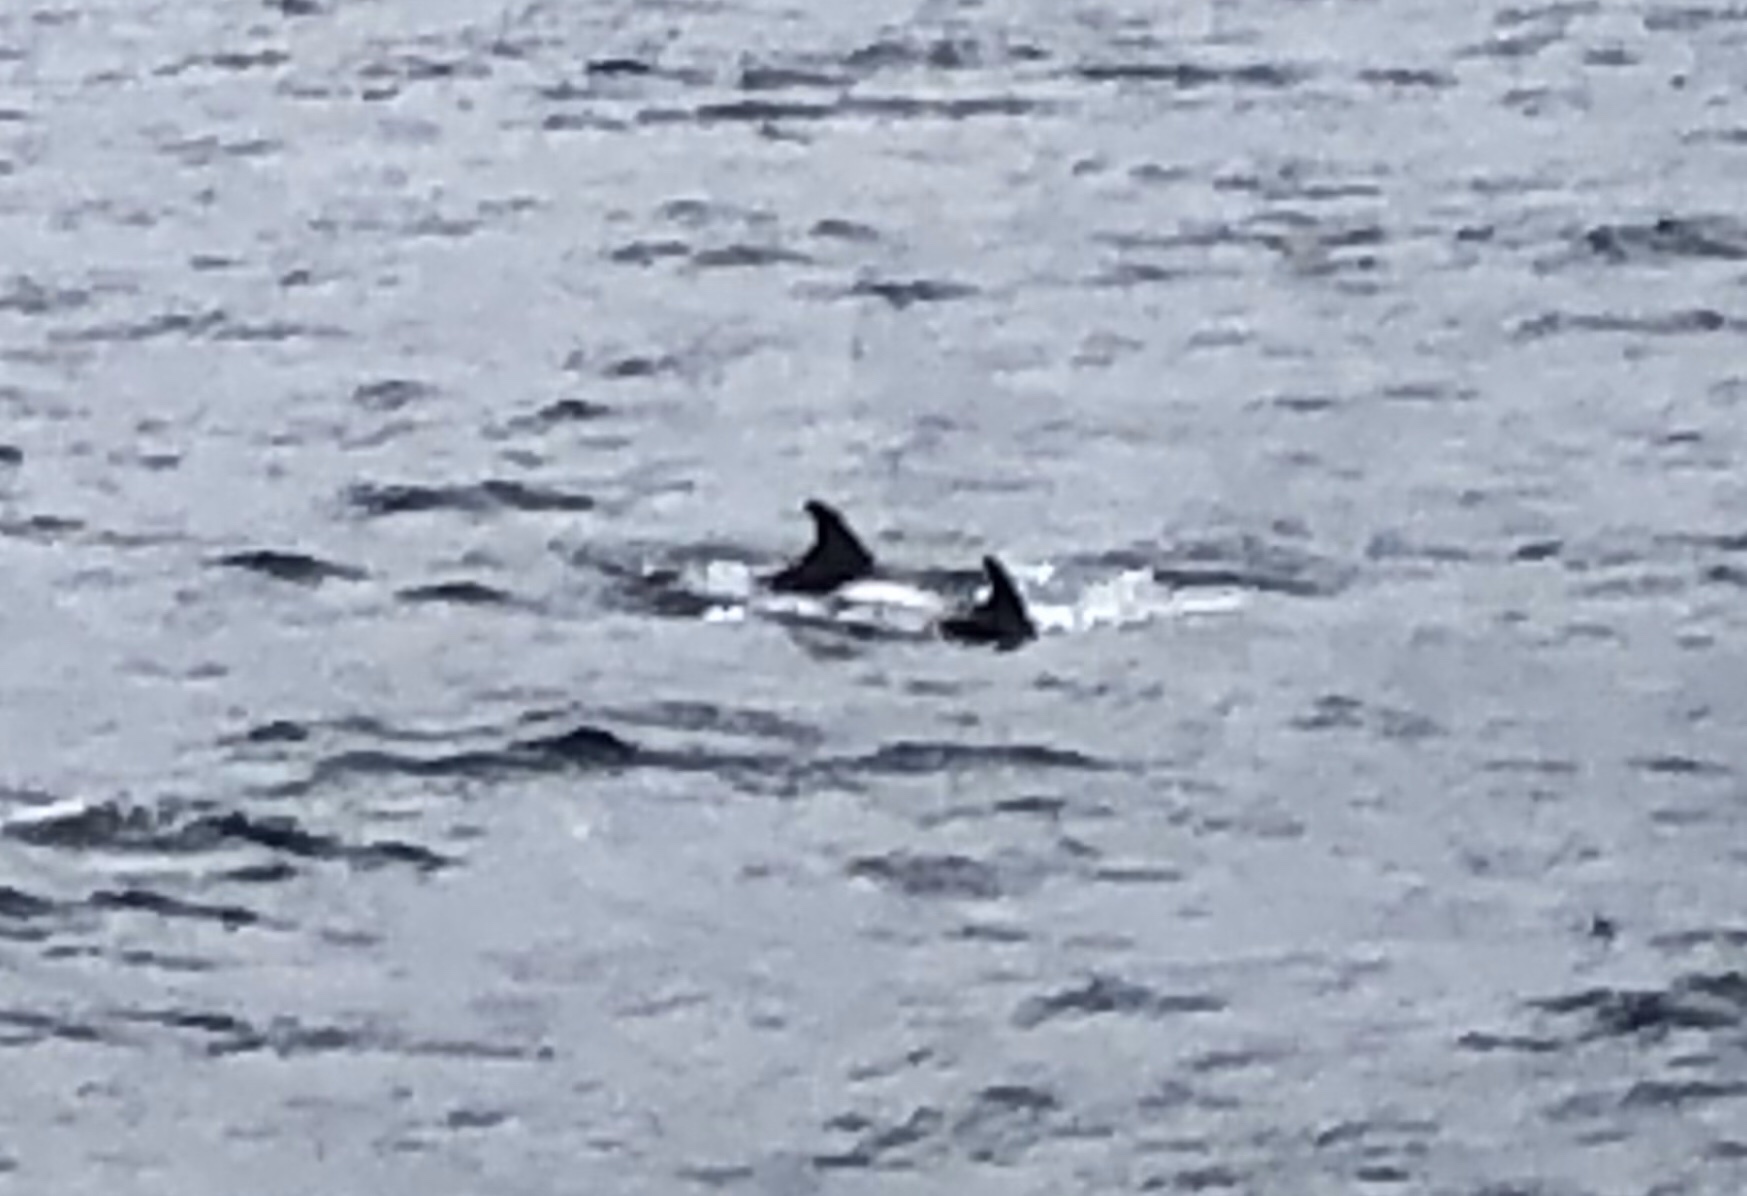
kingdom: Animalia
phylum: Chordata
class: Mammalia
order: Cetacea
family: Delphinidae
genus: Lagenorhynchus
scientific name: Lagenorhynchus albirostris
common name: White-beaked dolphin
